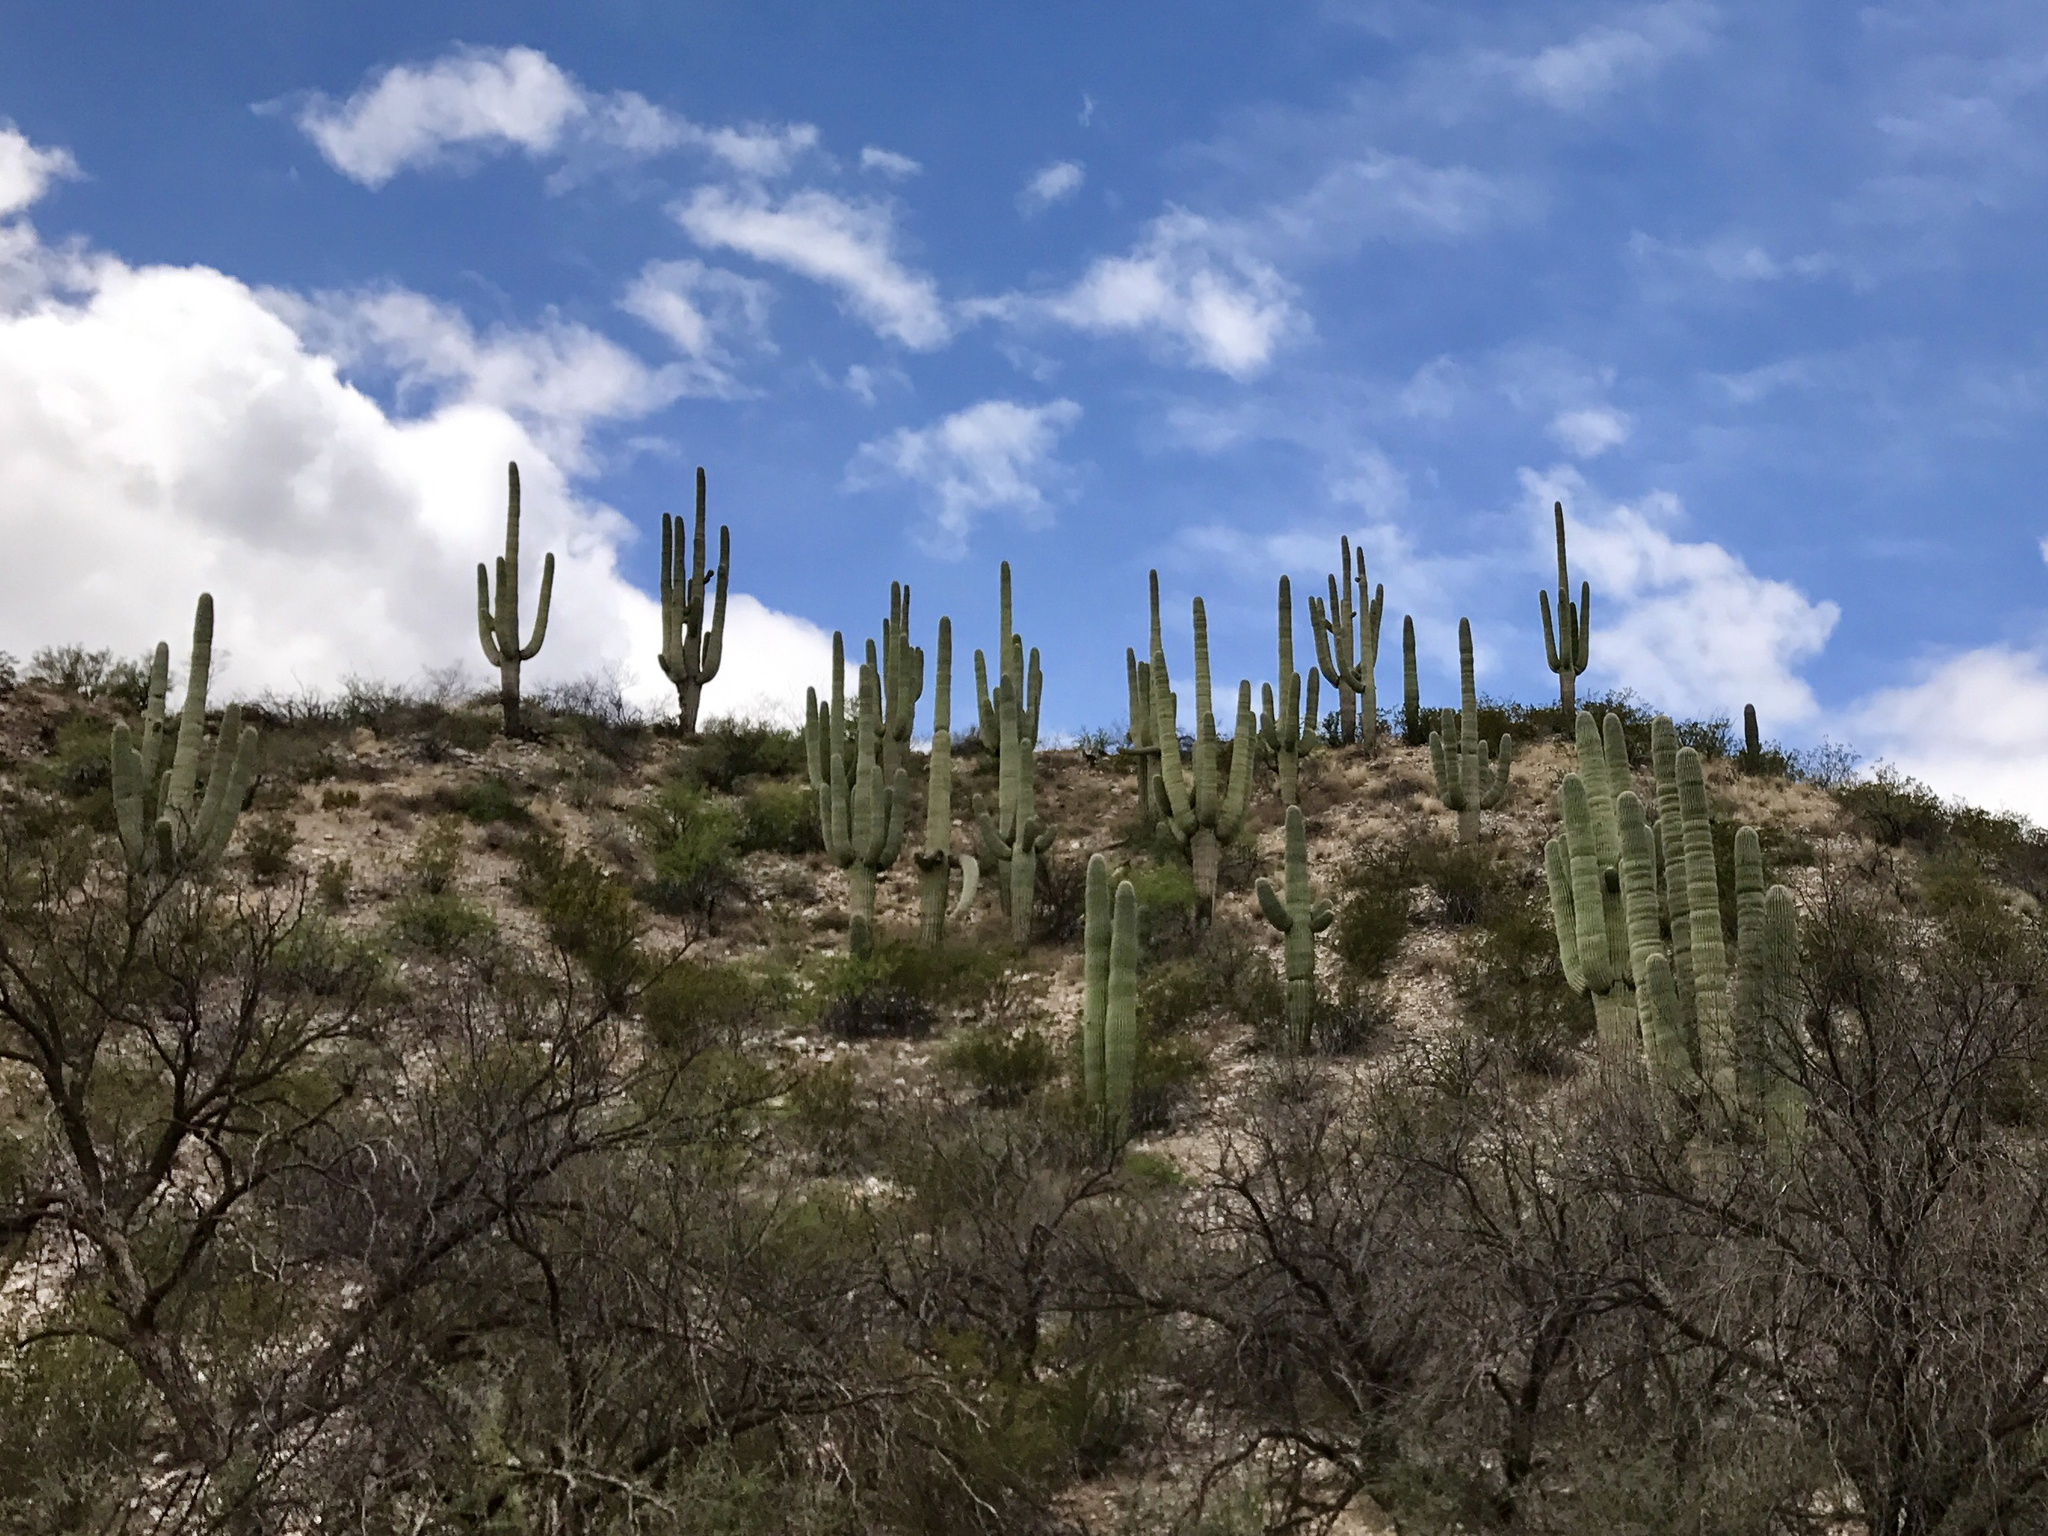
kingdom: Plantae
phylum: Tracheophyta
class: Magnoliopsida
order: Caryophyllales
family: Cactaceae
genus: Carnegiea
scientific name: Carnegiea gigantea
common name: Saguaro
